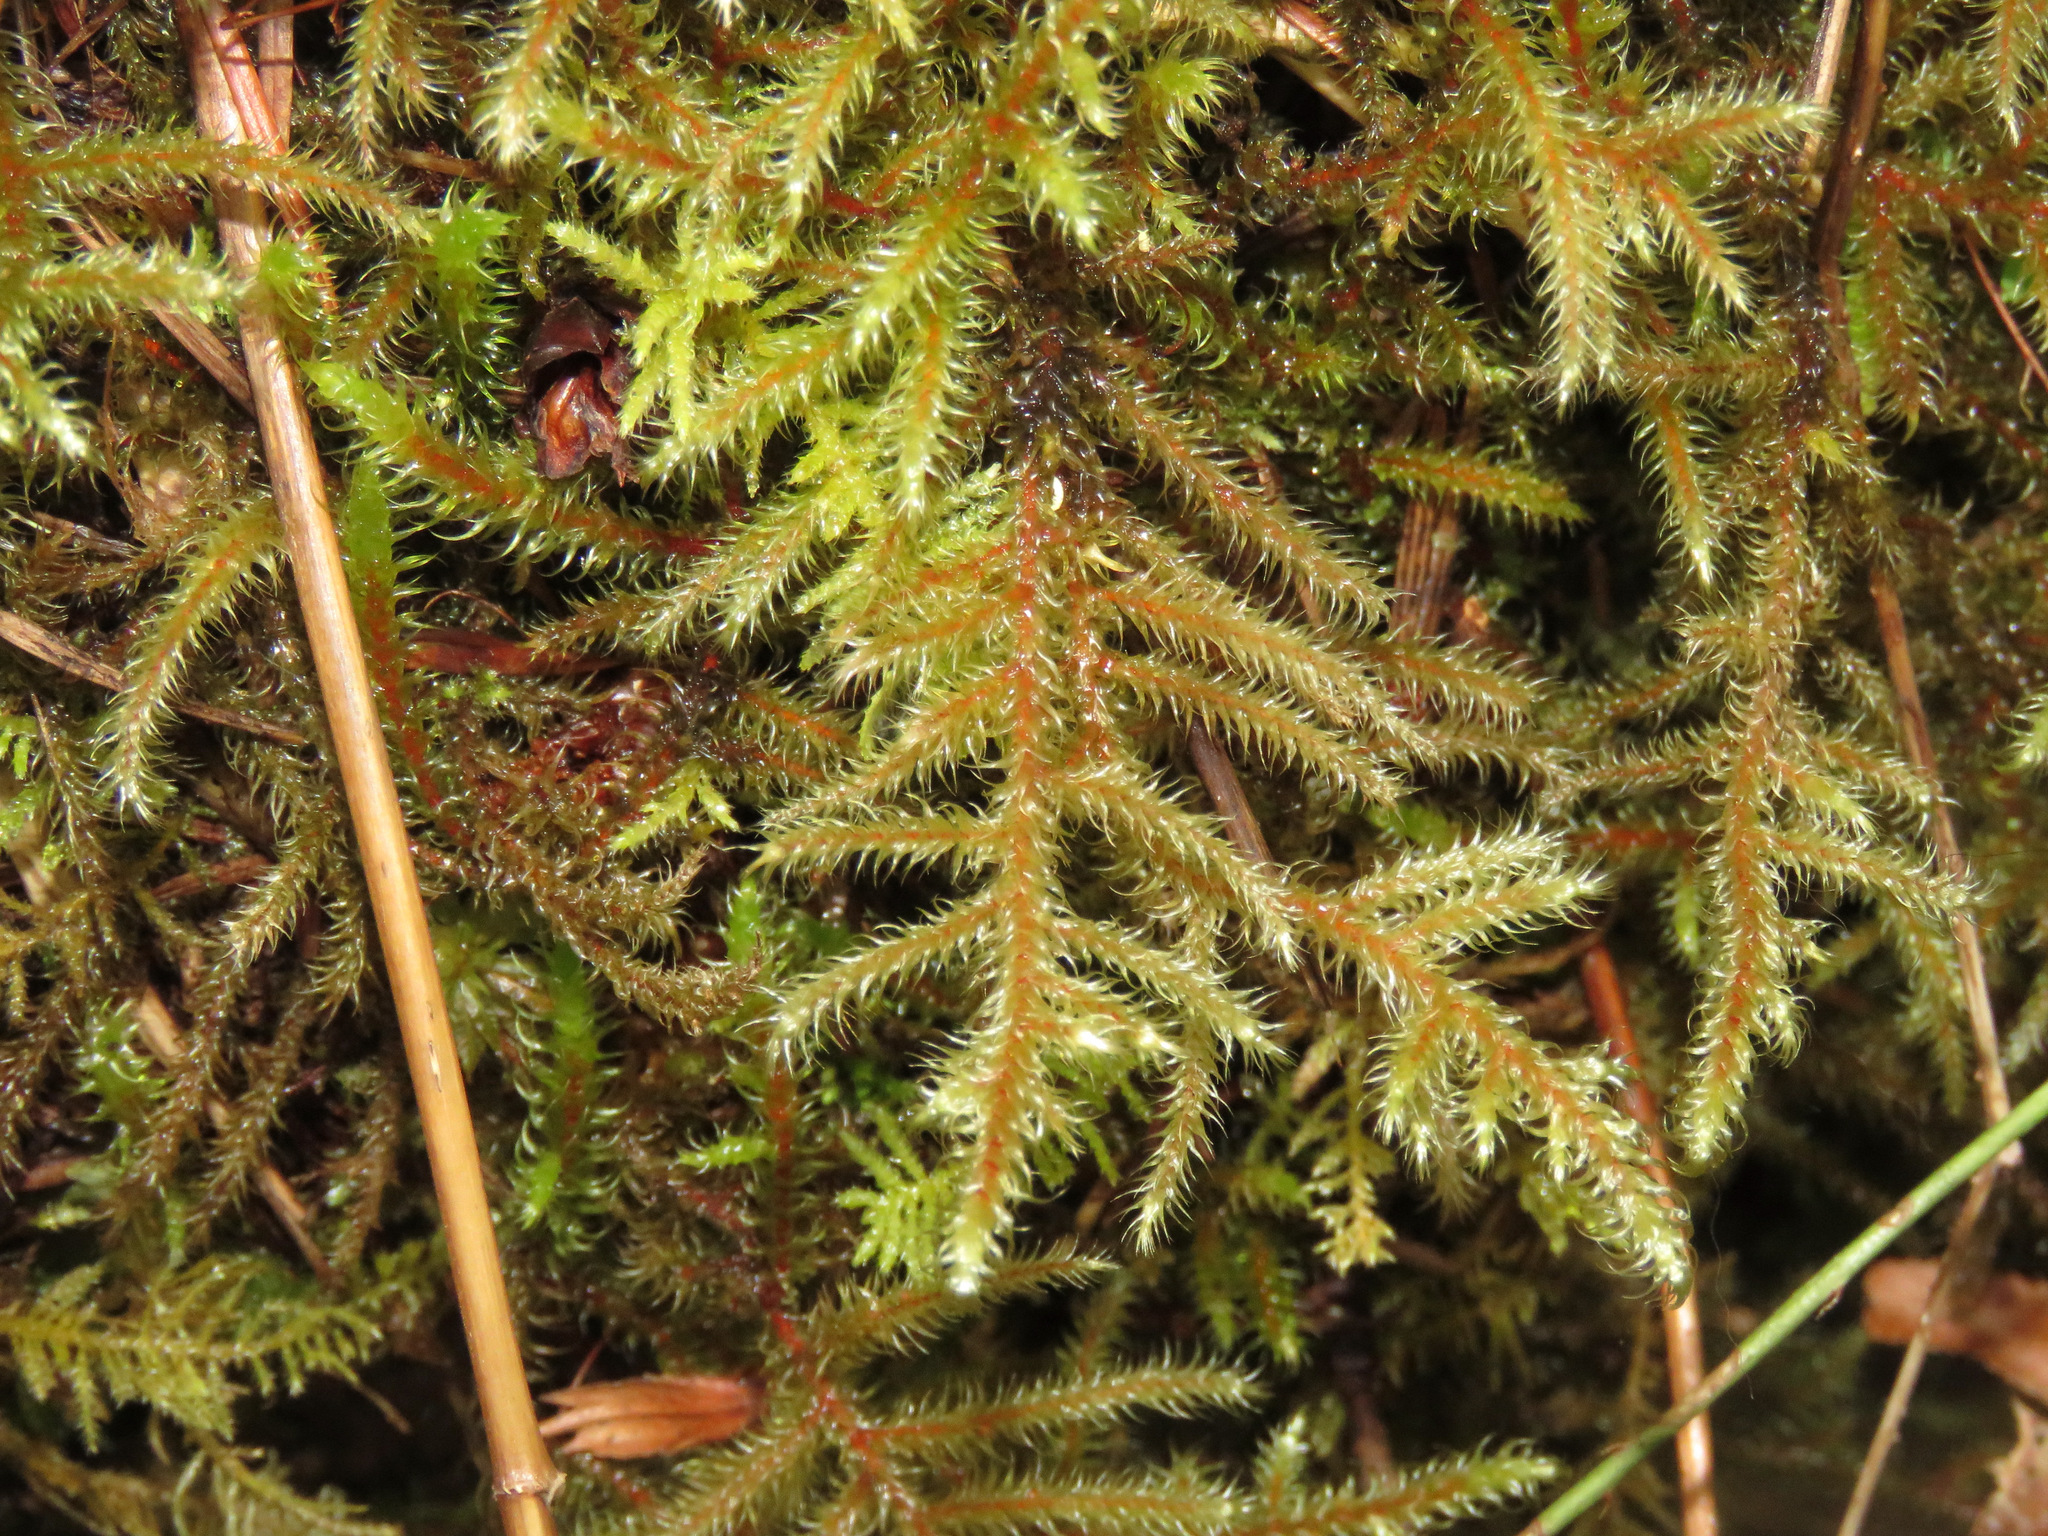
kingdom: Plantae
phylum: Bryophyta
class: Bryopsida
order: Hypnales
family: Hylocomiaceae
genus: Rhytidiadelphus
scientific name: Rhytidiadelphus loreus
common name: Lanky moss
